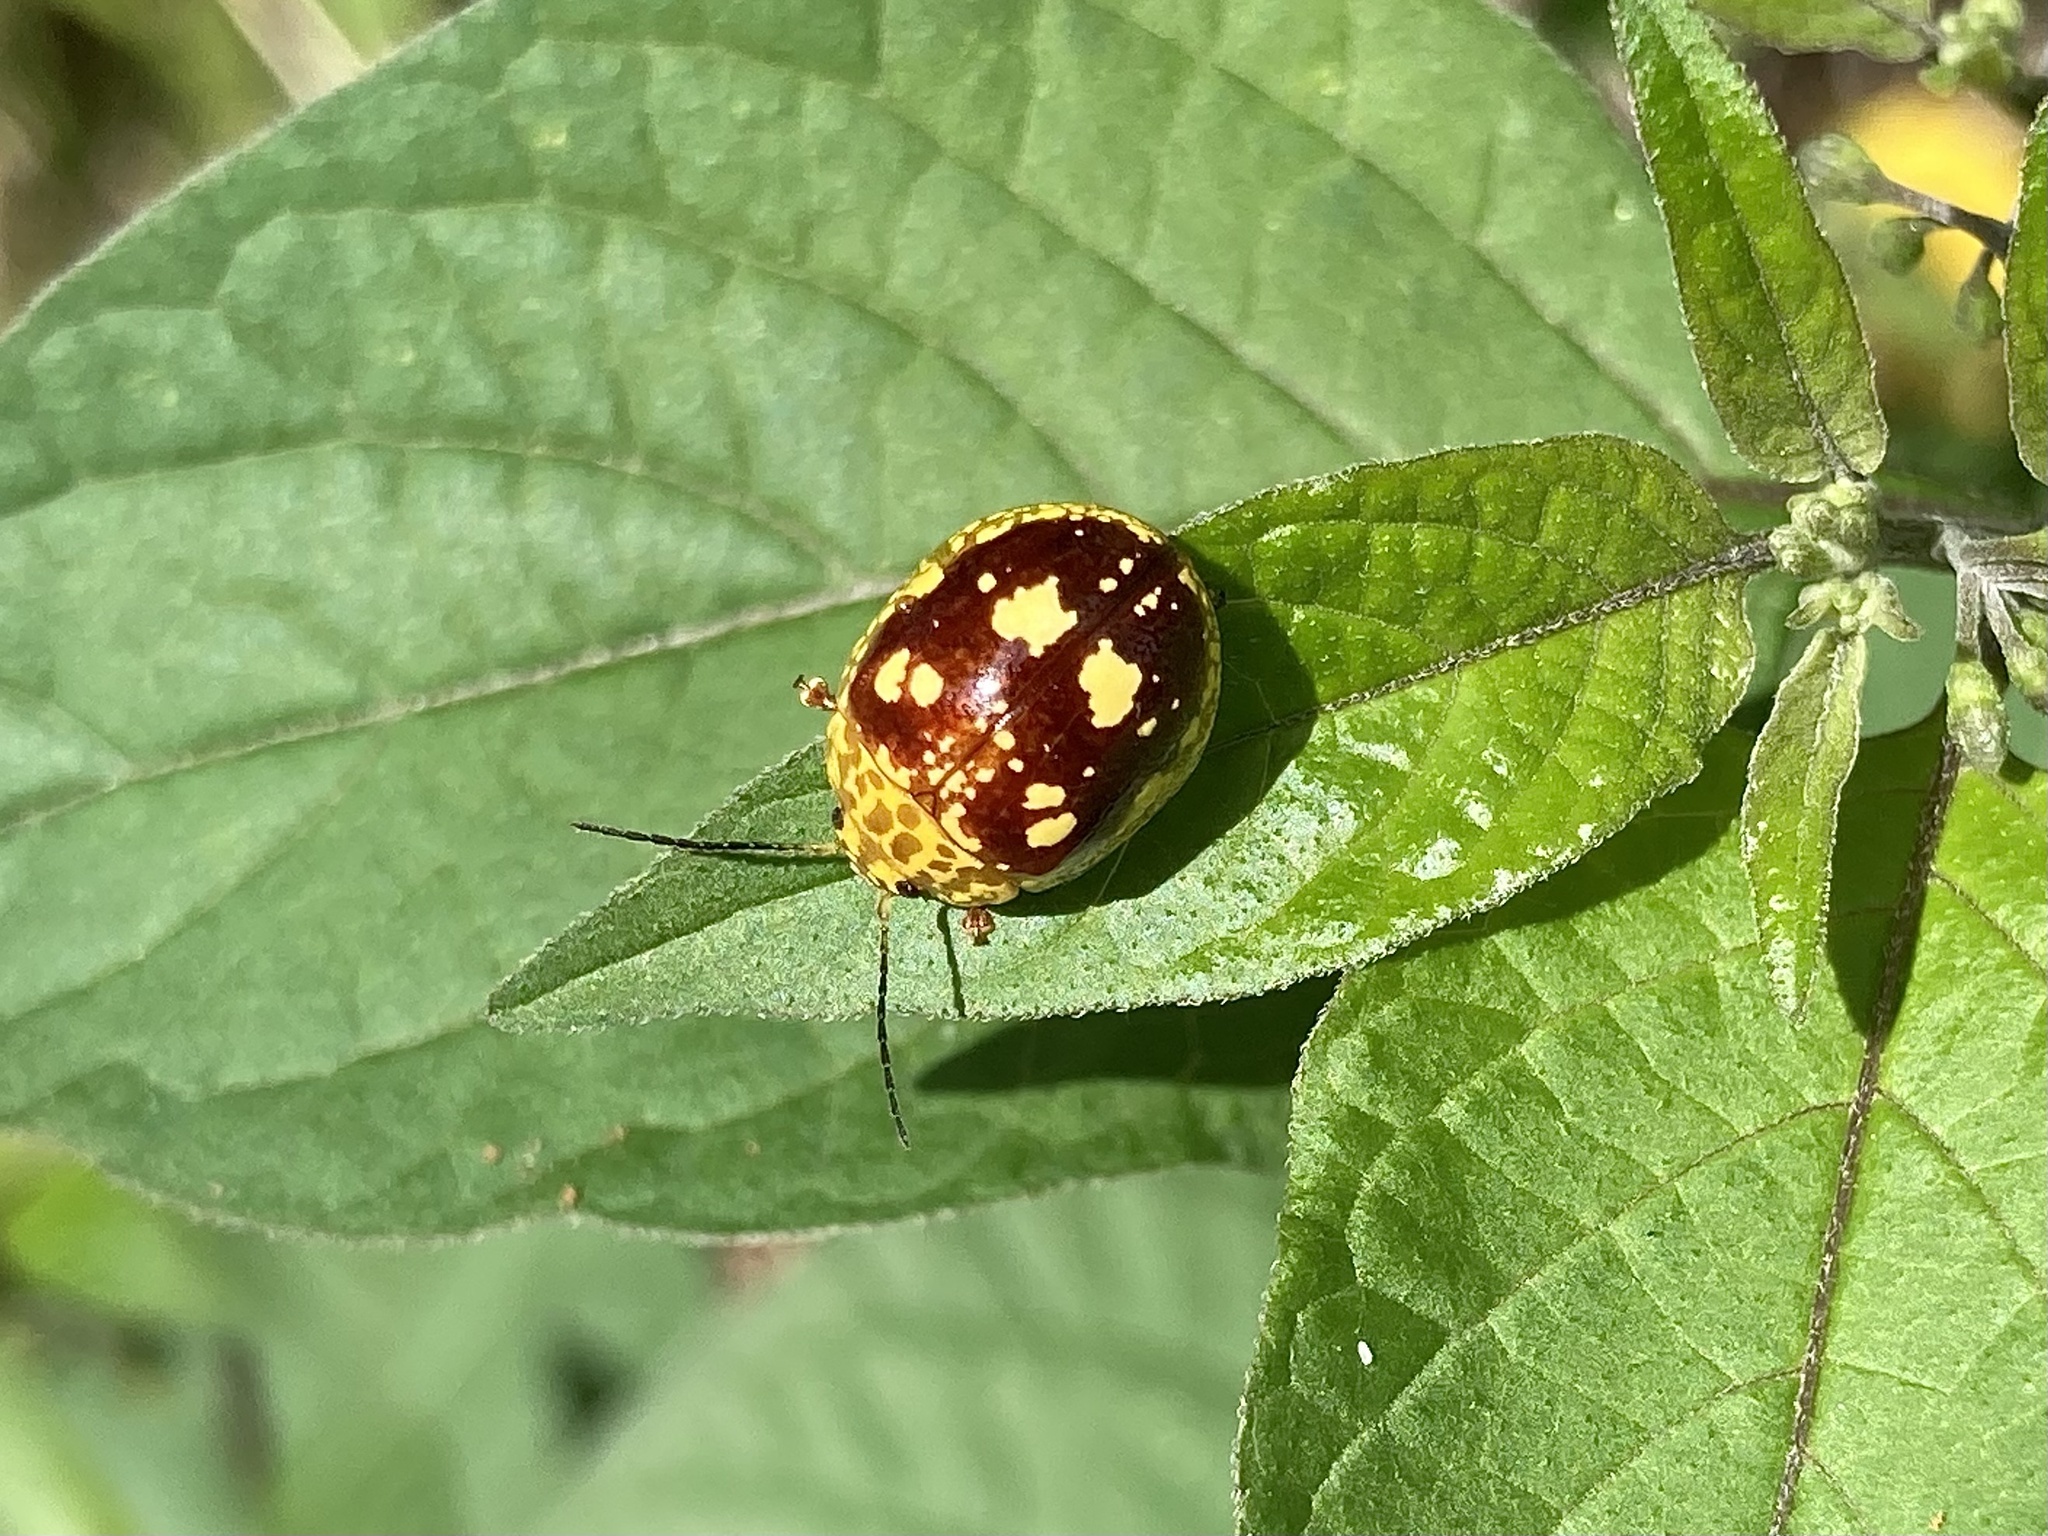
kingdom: Animalia
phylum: Arthropoda
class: Insecta
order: Coleoptera
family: Chrysomelidae
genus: Paropsis
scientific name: Paropsis maculata
